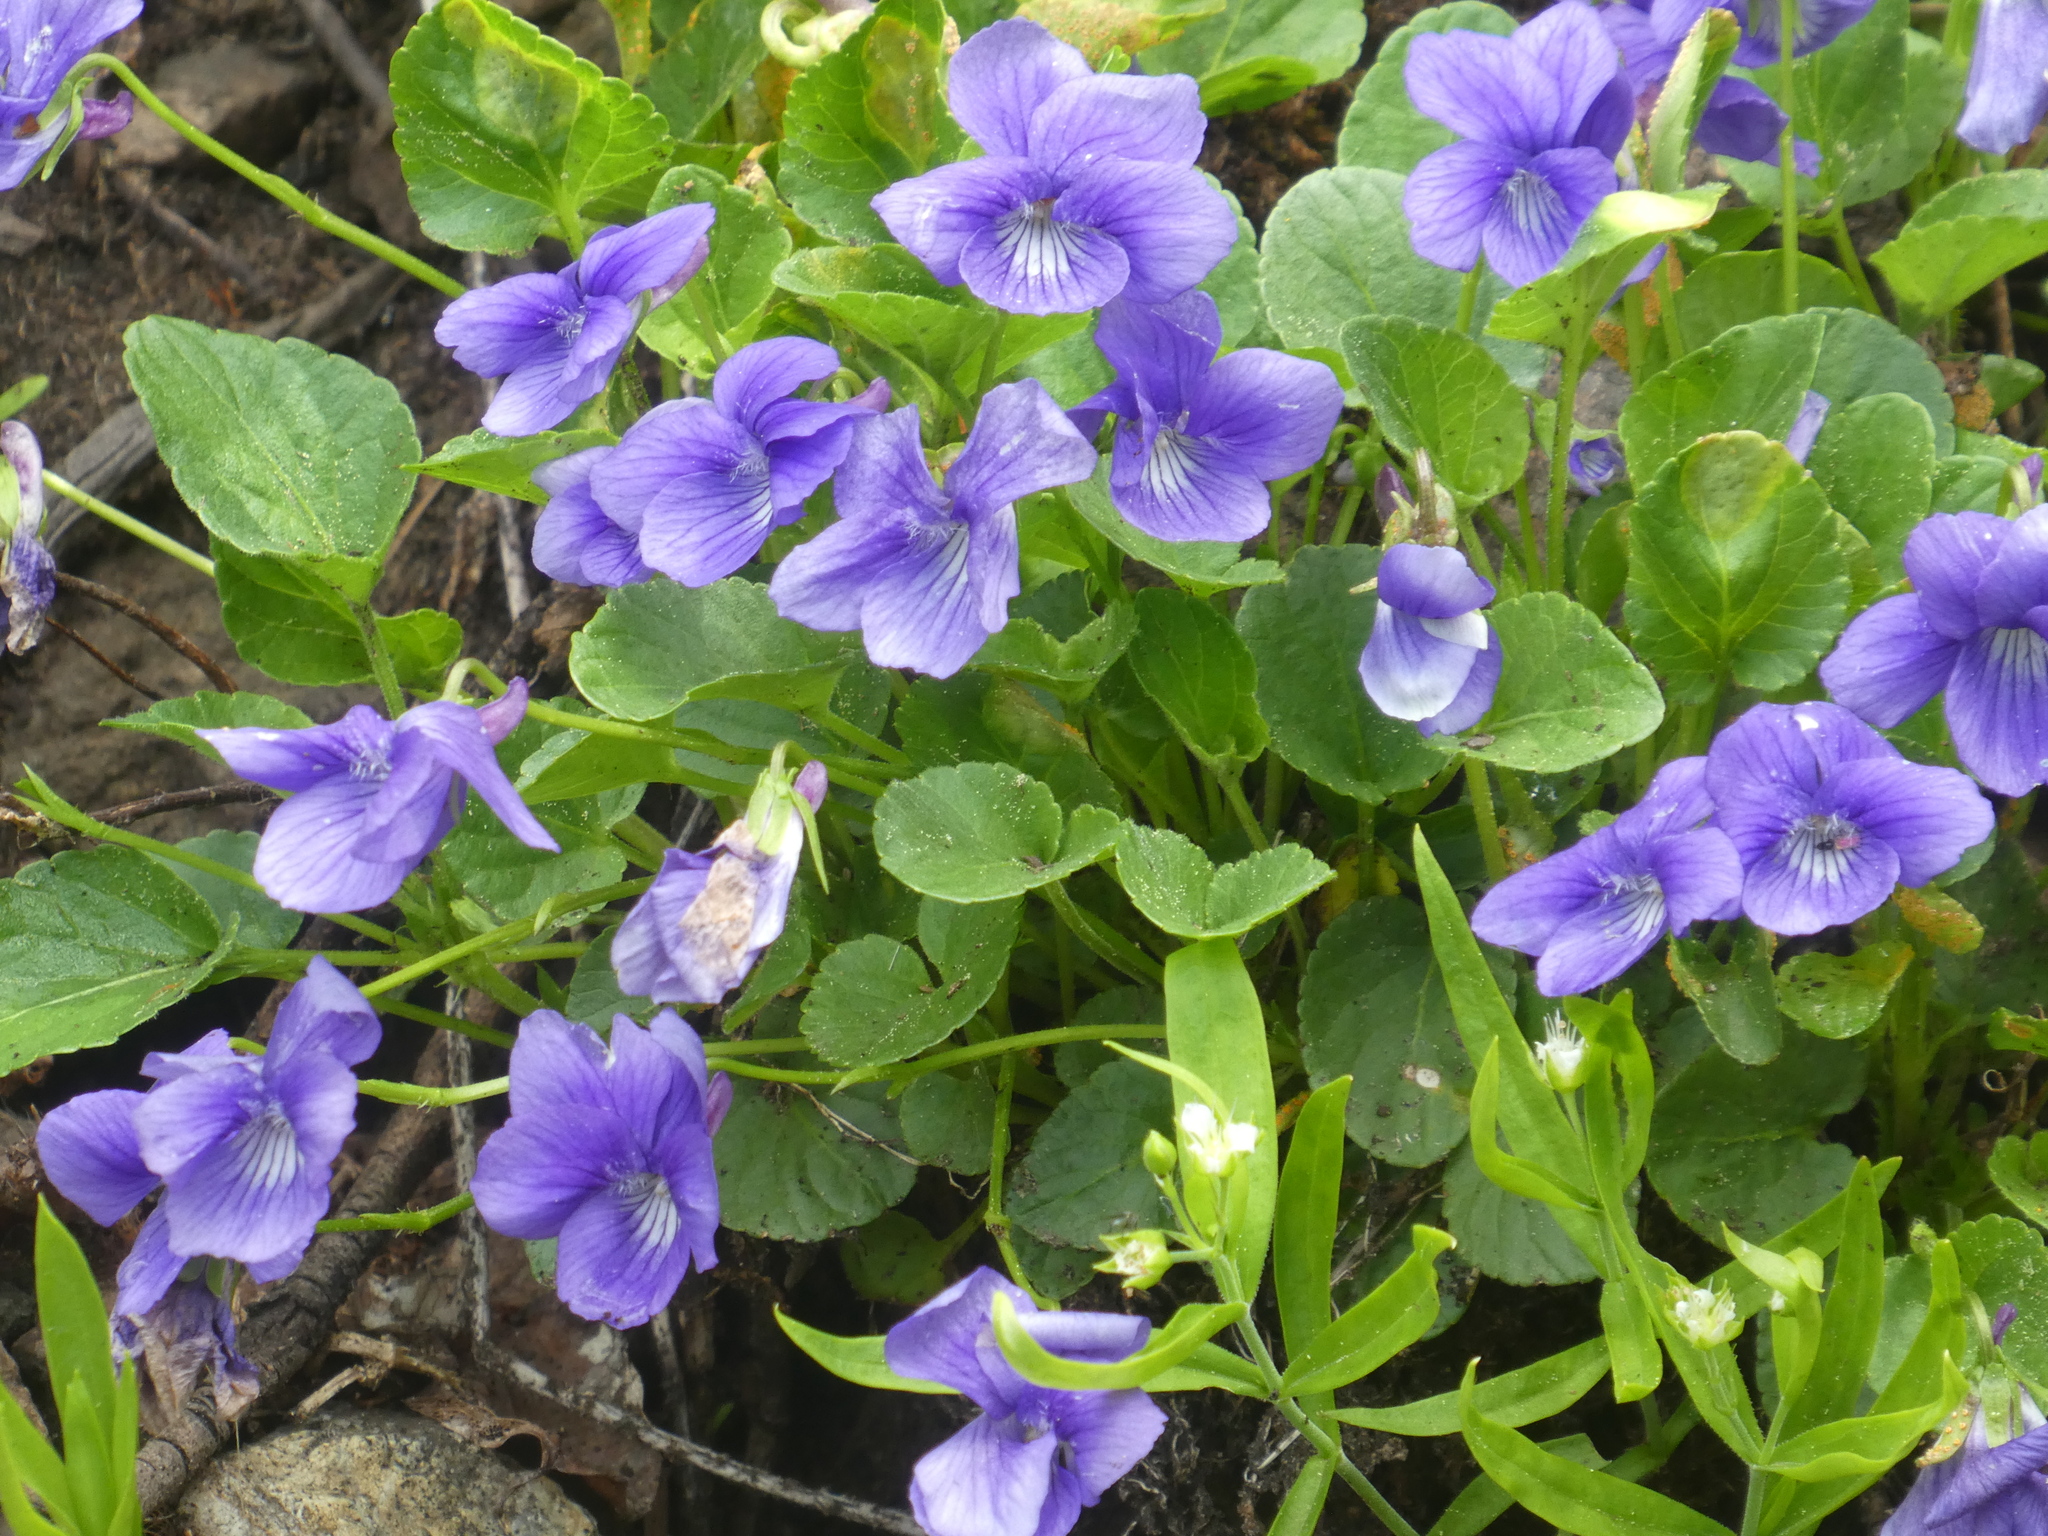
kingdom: Plantae
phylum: Tracheophyta
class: Magnoliopsida
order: Malpighiales
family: Violaceae
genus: Viola
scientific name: Viola adunca
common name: Sand violet
